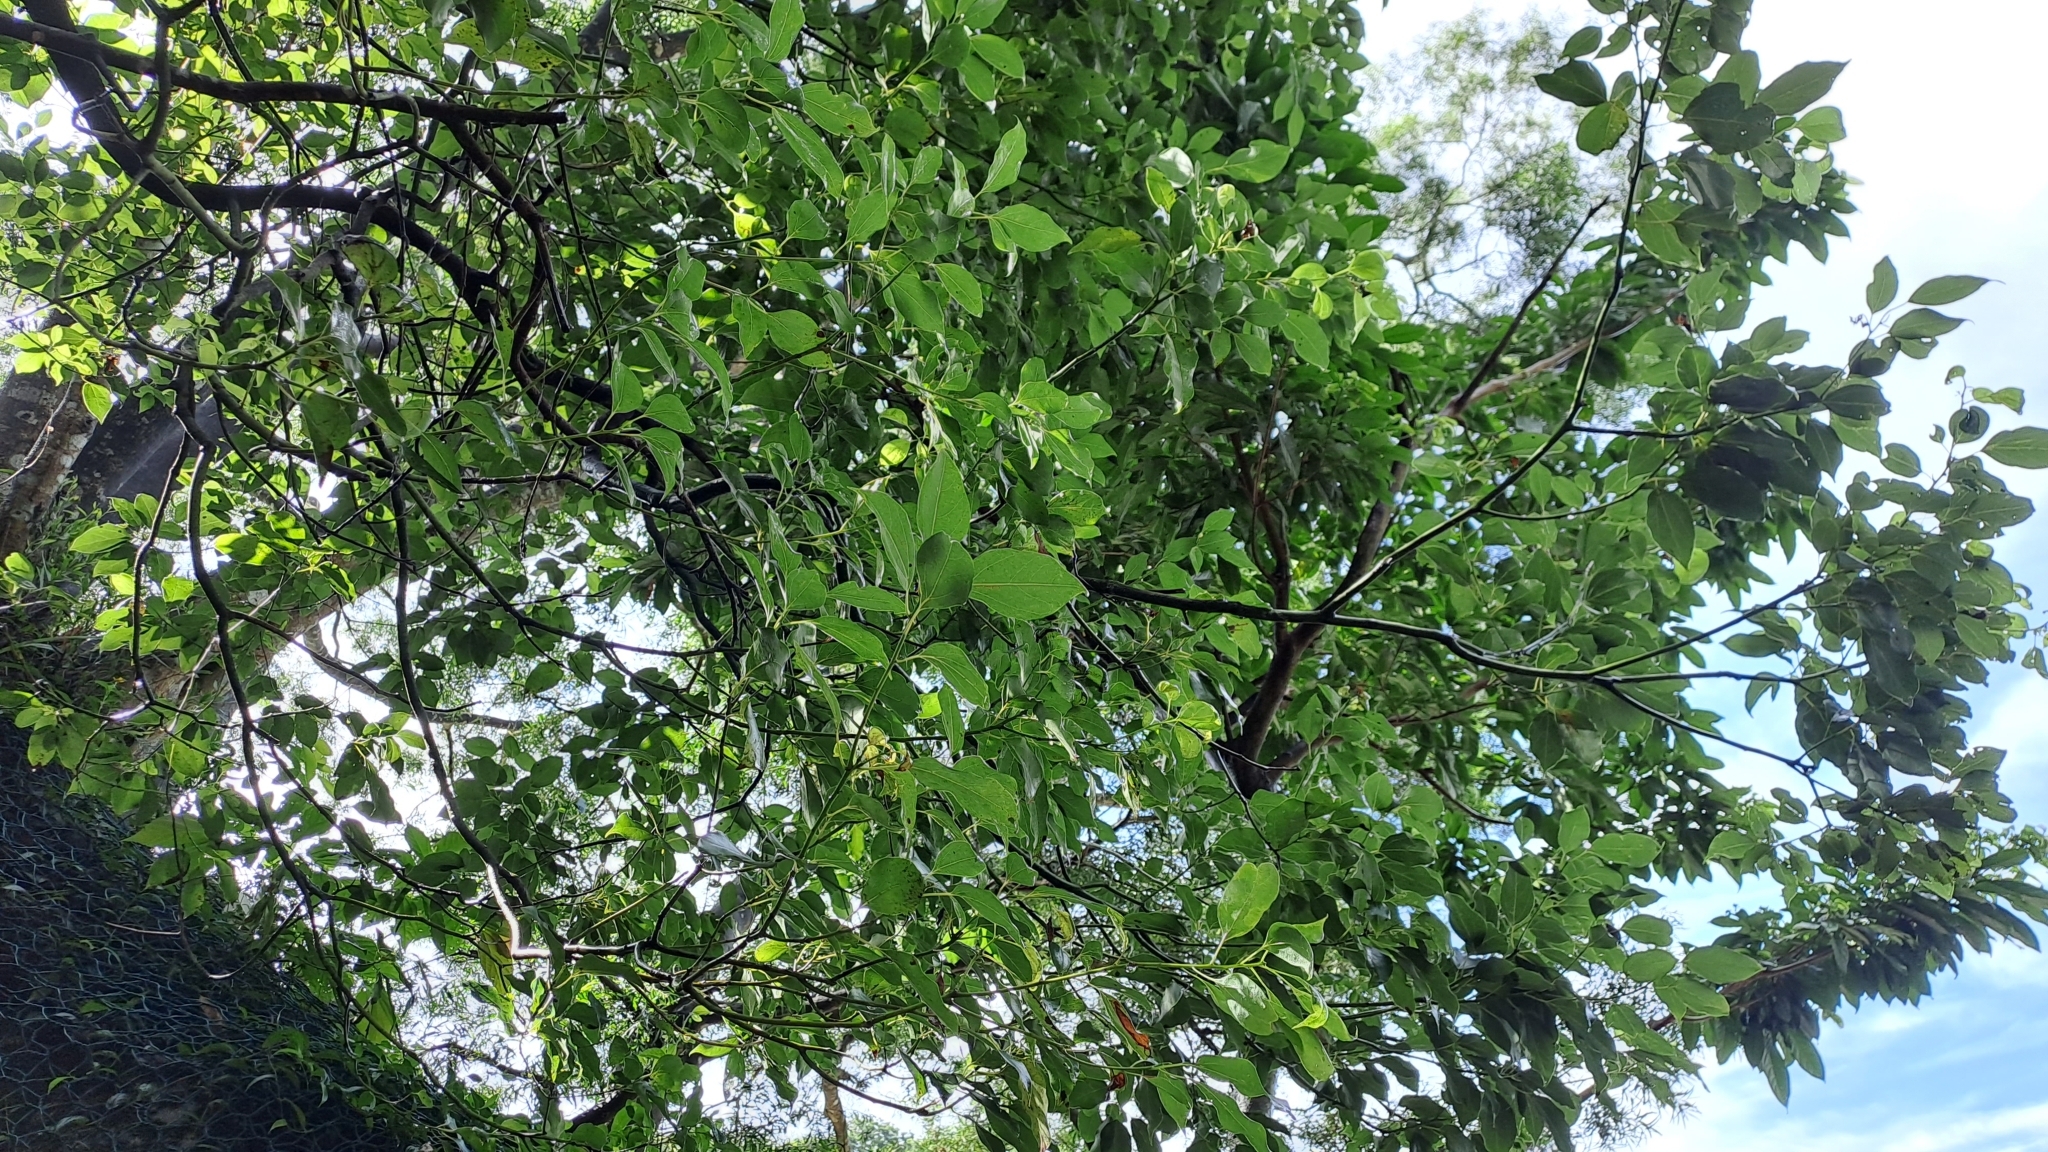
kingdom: Plantae
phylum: Tracheophyta
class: Magnoliopsida
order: Laurales
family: Lauraceae
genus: Cinnamomum
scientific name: Cinnamomum camphora
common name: Camphortree
